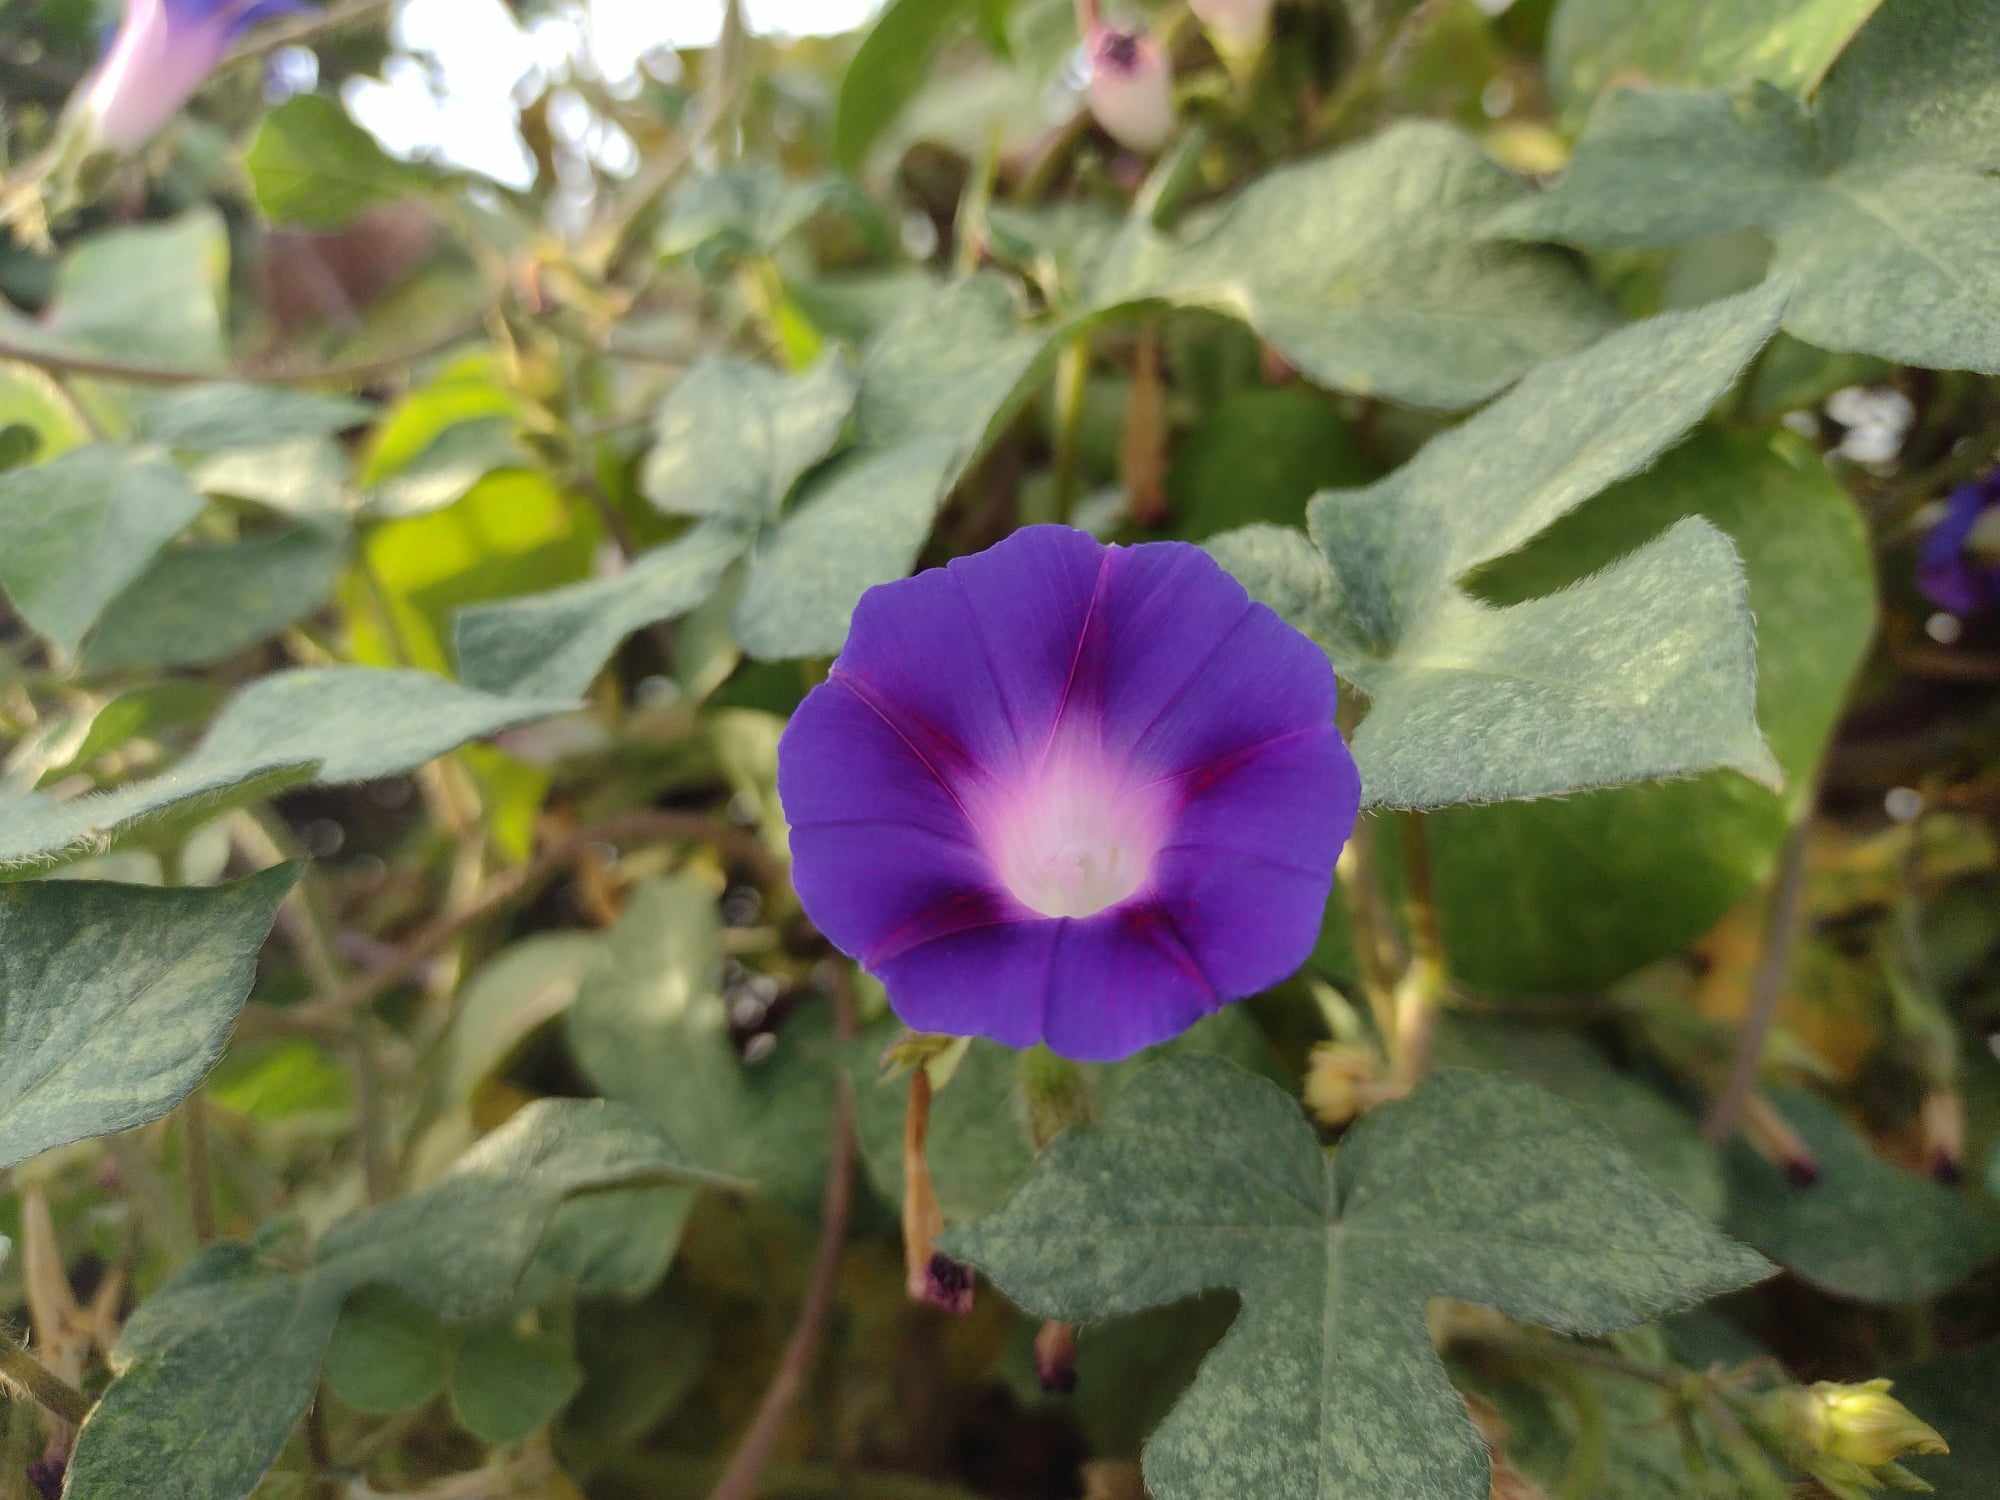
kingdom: Plantae
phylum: Tracheophyta
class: Magnoliopsida
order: Solanales
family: Convolvulaceae
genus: Ipomoea
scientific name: Ipomoea purpurea
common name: Common morning-glory
